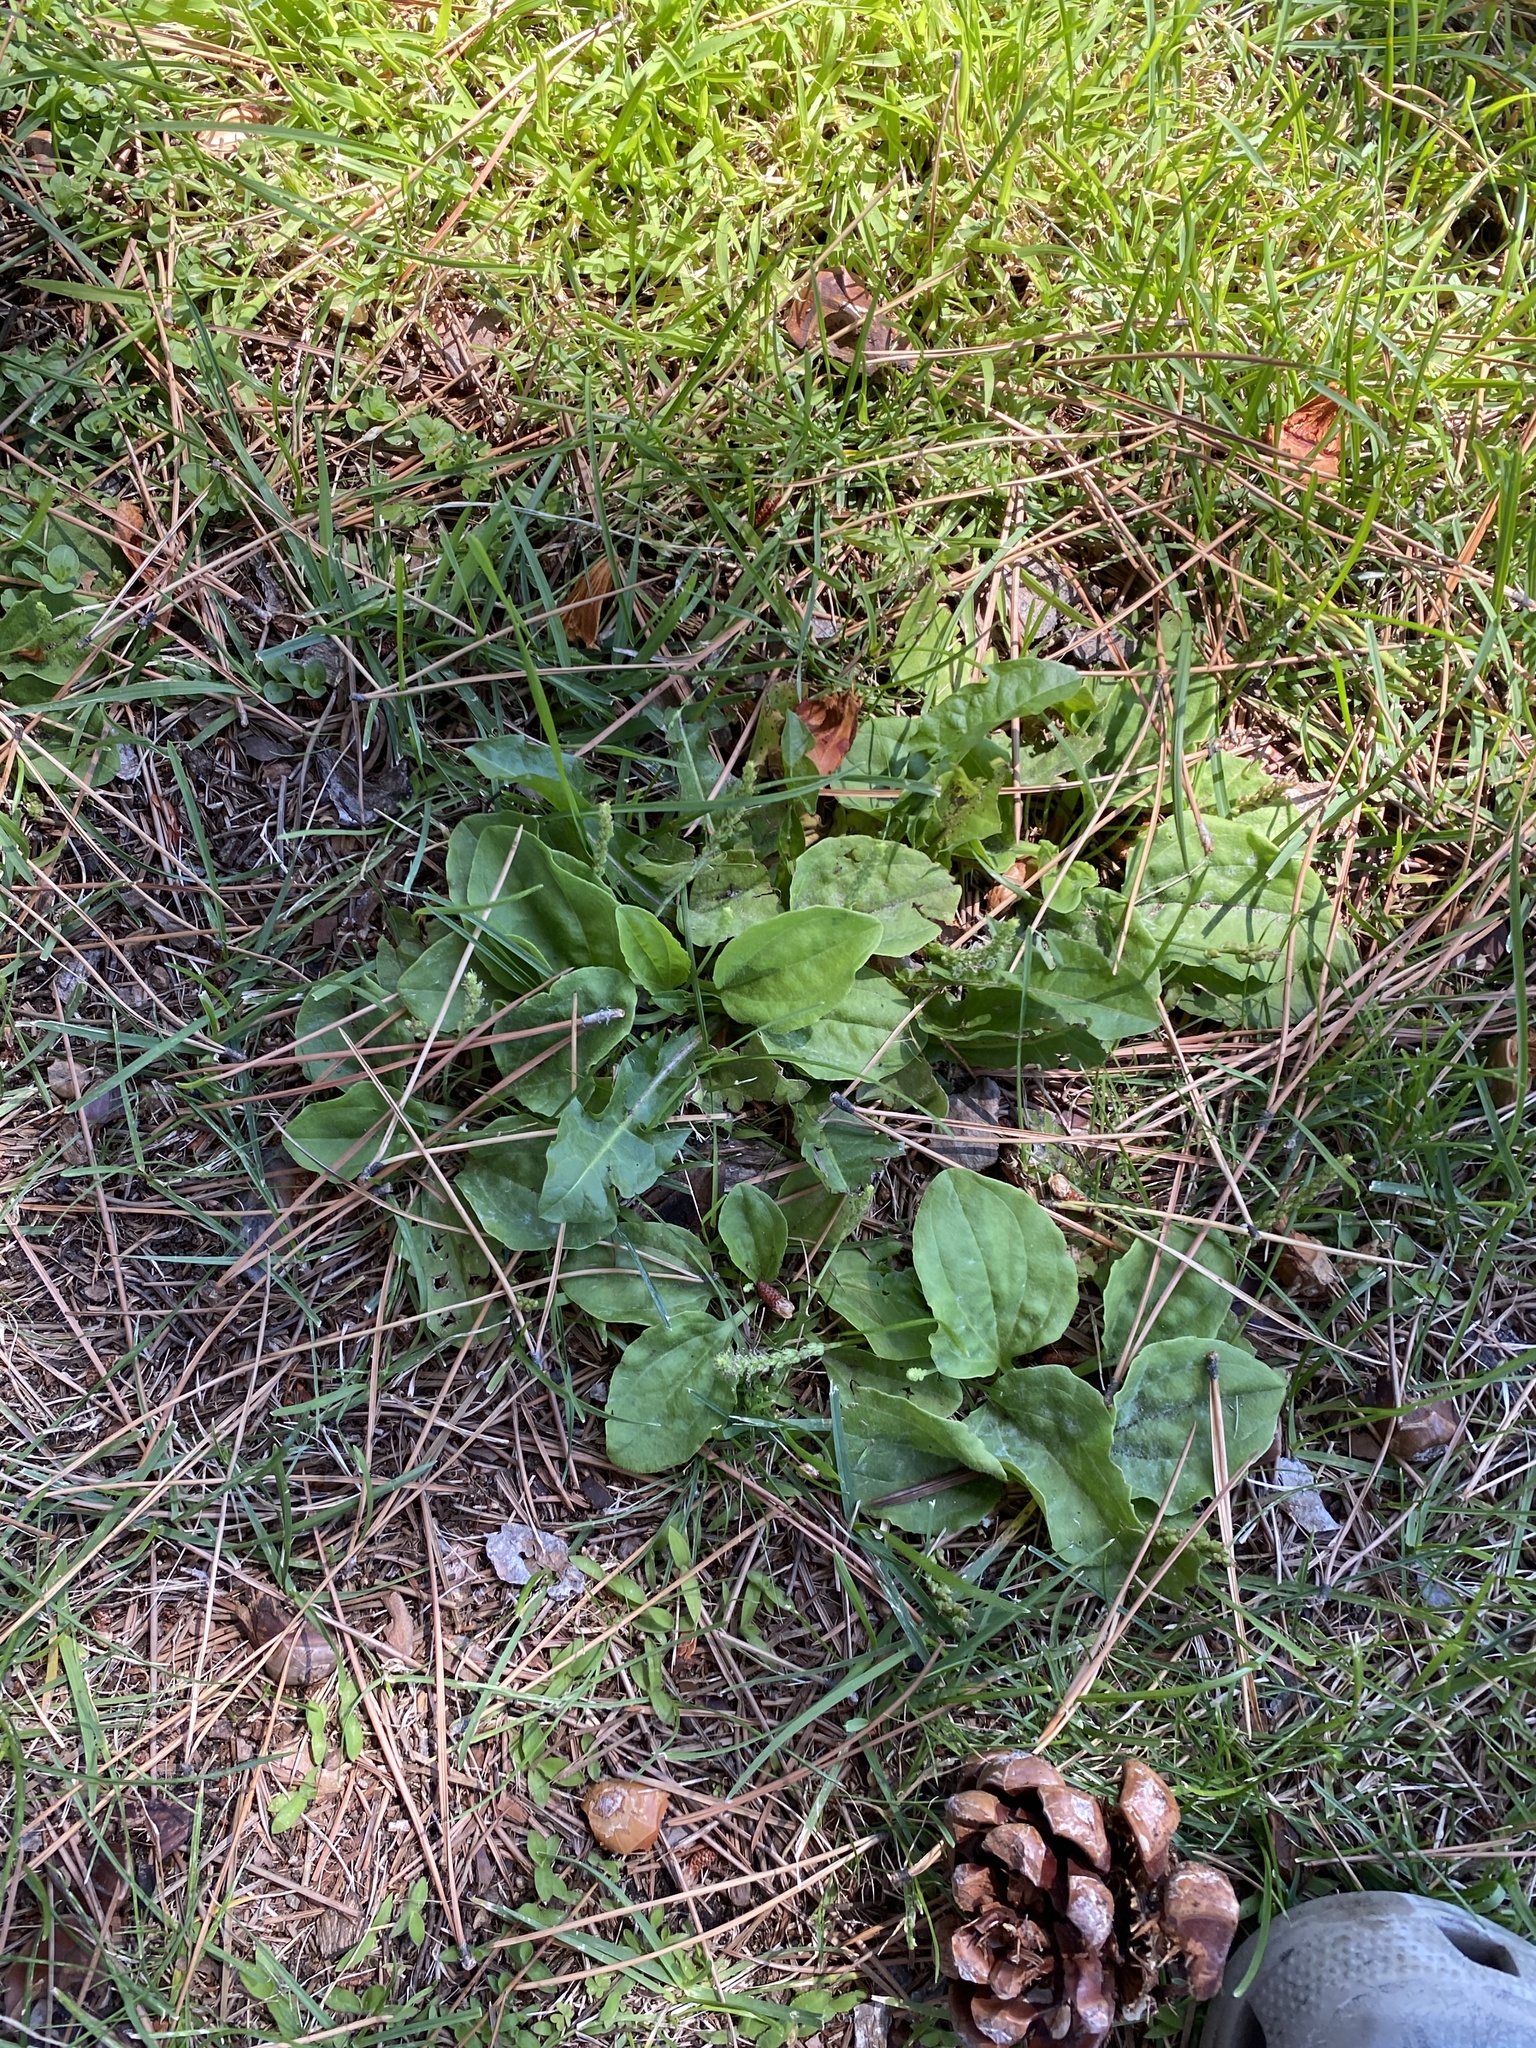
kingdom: Plantae
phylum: Tracheophyta
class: Magnoliopsida
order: Lamiales
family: Plantaginaceae
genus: Plantago
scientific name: Plantago major
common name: Common plantain
